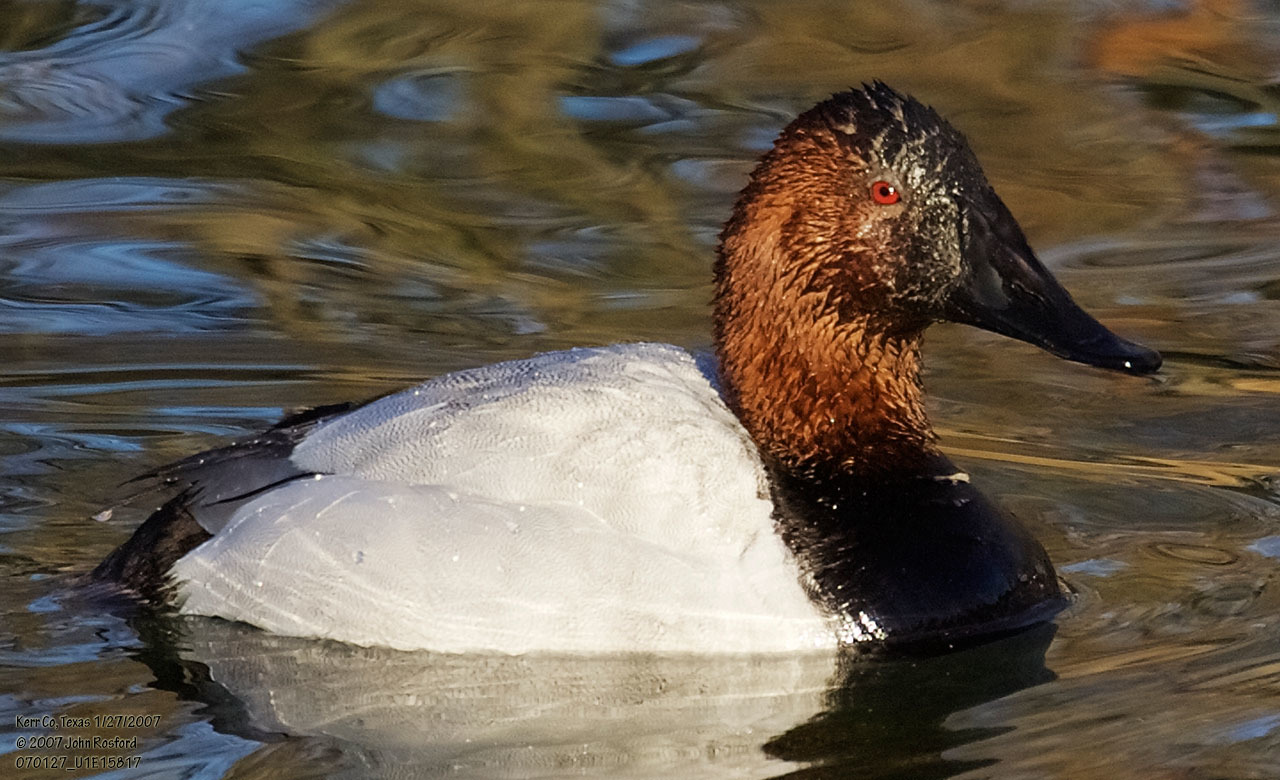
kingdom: Animalia
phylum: Chordata
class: Aves
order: Anseriformes
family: Anatidae
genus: Aythya
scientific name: Aythya valisineria
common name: Canvasback
